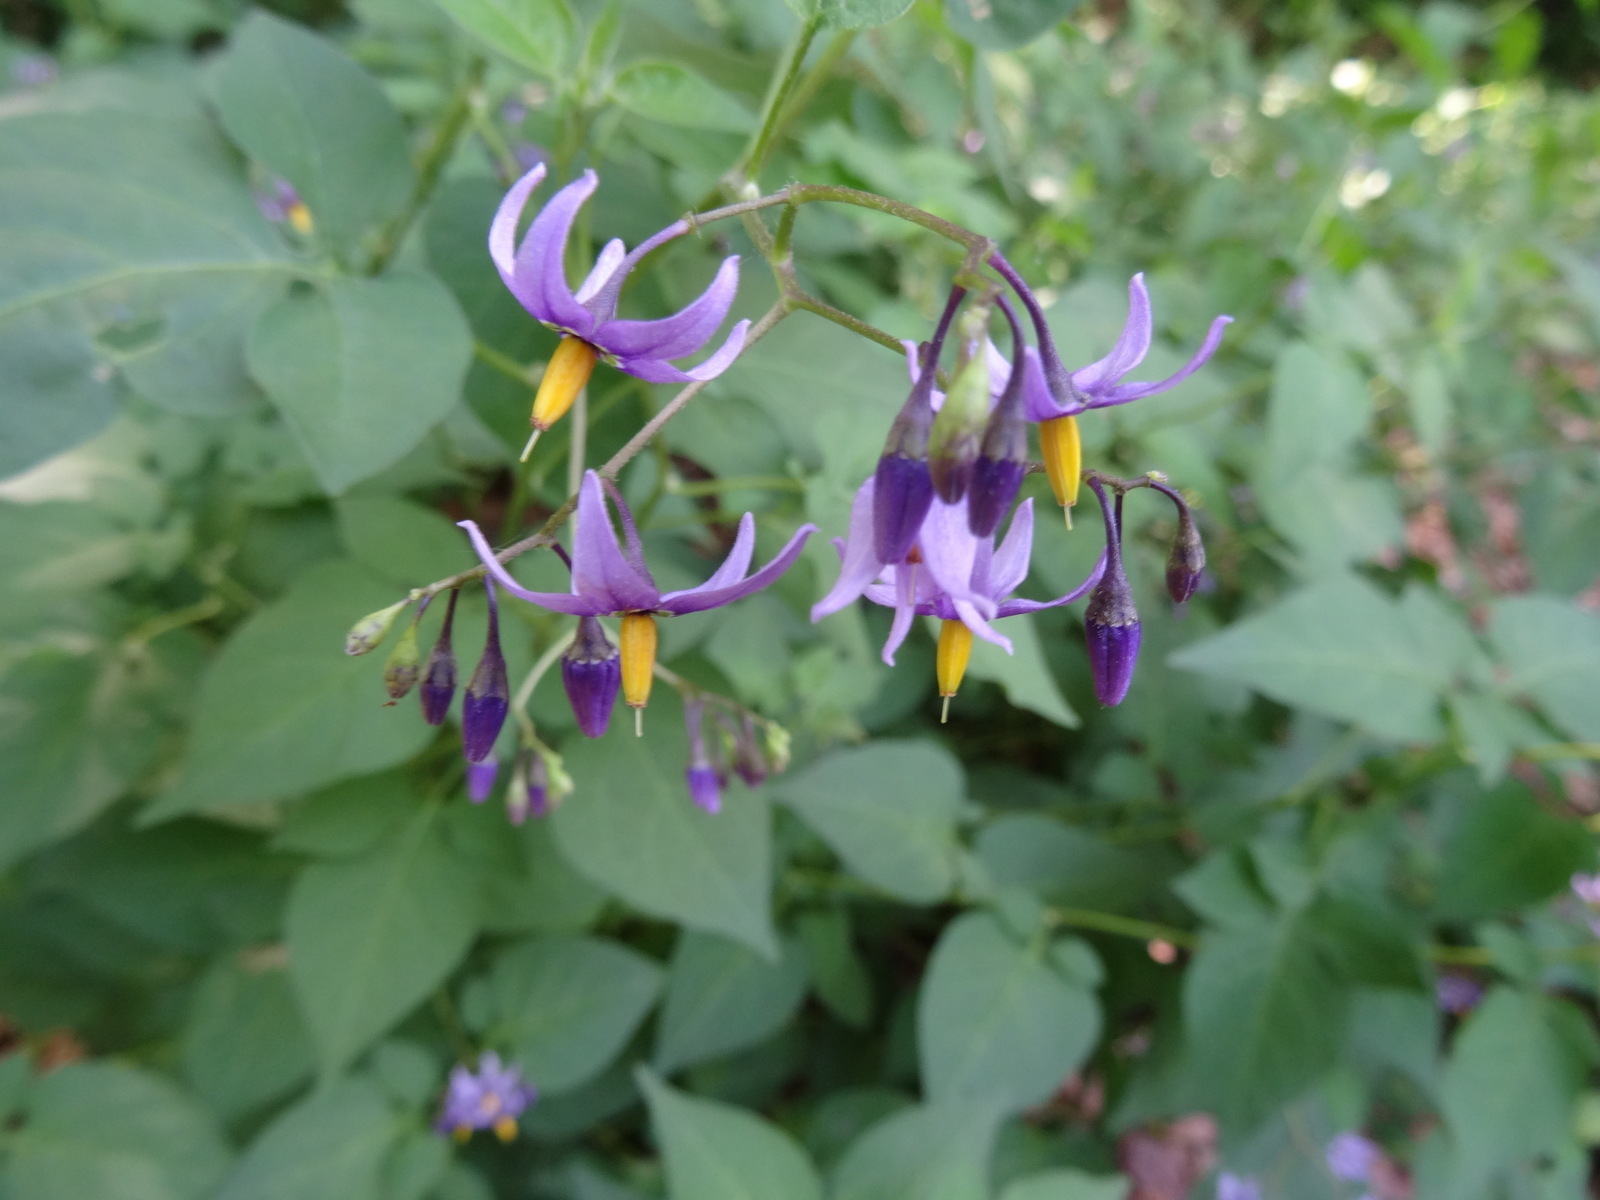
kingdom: Plantae
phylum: Tracheophyta
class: Magnoliopsida
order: Solanales
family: Solanaceae
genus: Solanum
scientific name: Solanum dulcamara
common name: Climbing nightshade
